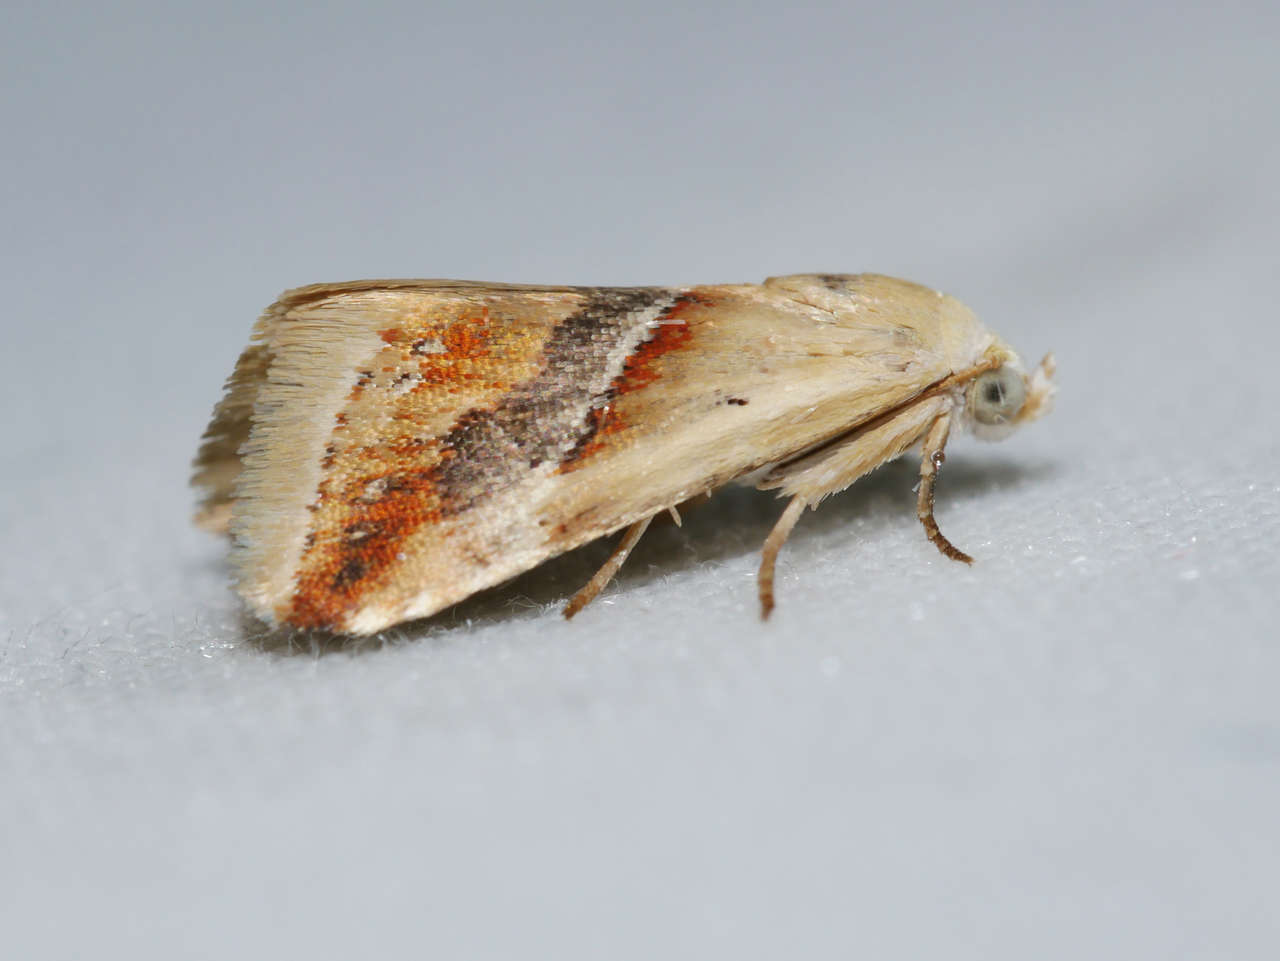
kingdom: Animalia
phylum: Arthropoda
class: Insecta
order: Lepidoptera
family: Noctuidae
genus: Eublemma
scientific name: Eublemma inconspicua
